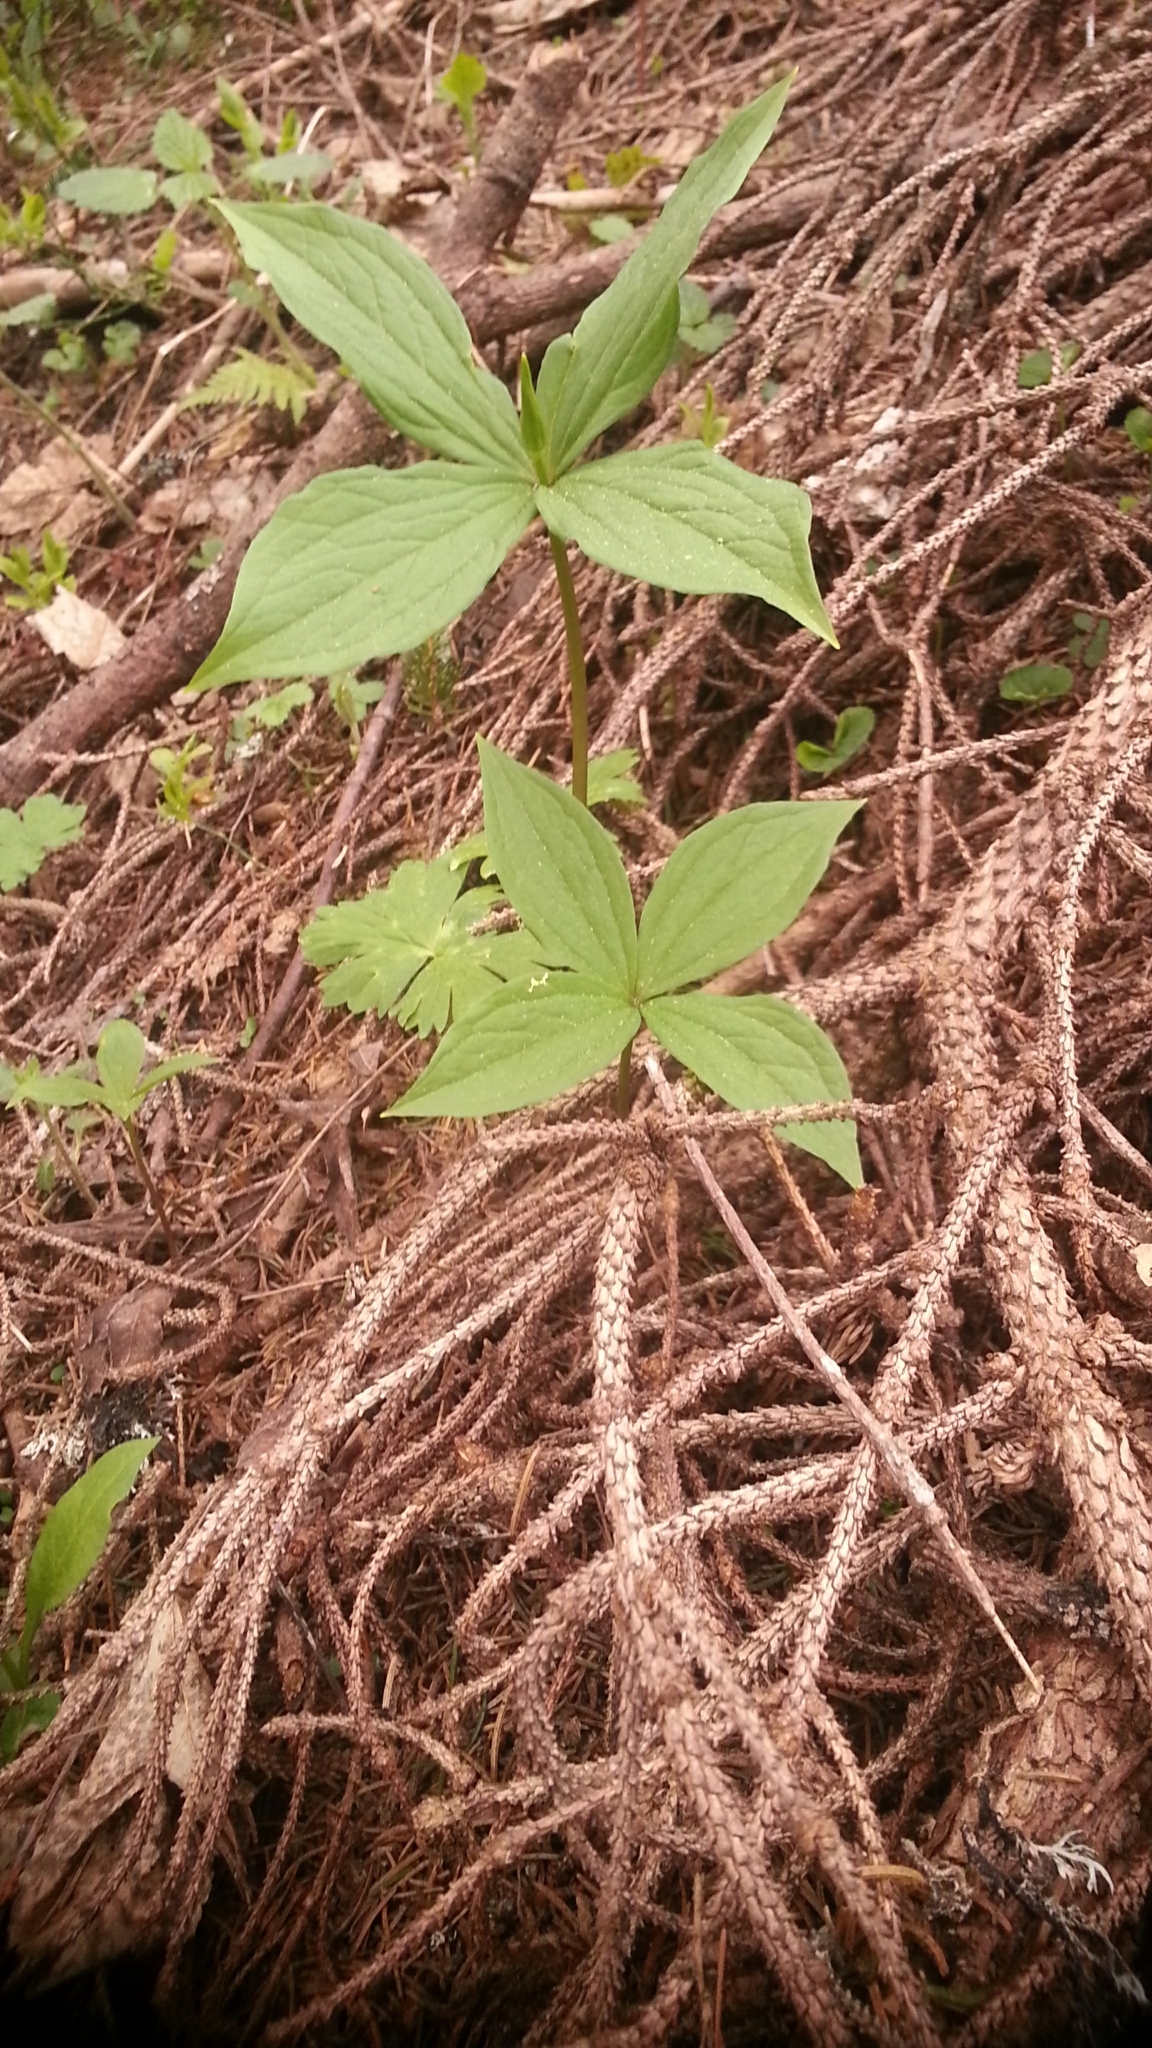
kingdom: Plantae
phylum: Tracheophyta
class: Liliopsida
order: Liliales
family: Melanthiaceae
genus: Paris
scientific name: Paris quadrifolia
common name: Herb-paris
